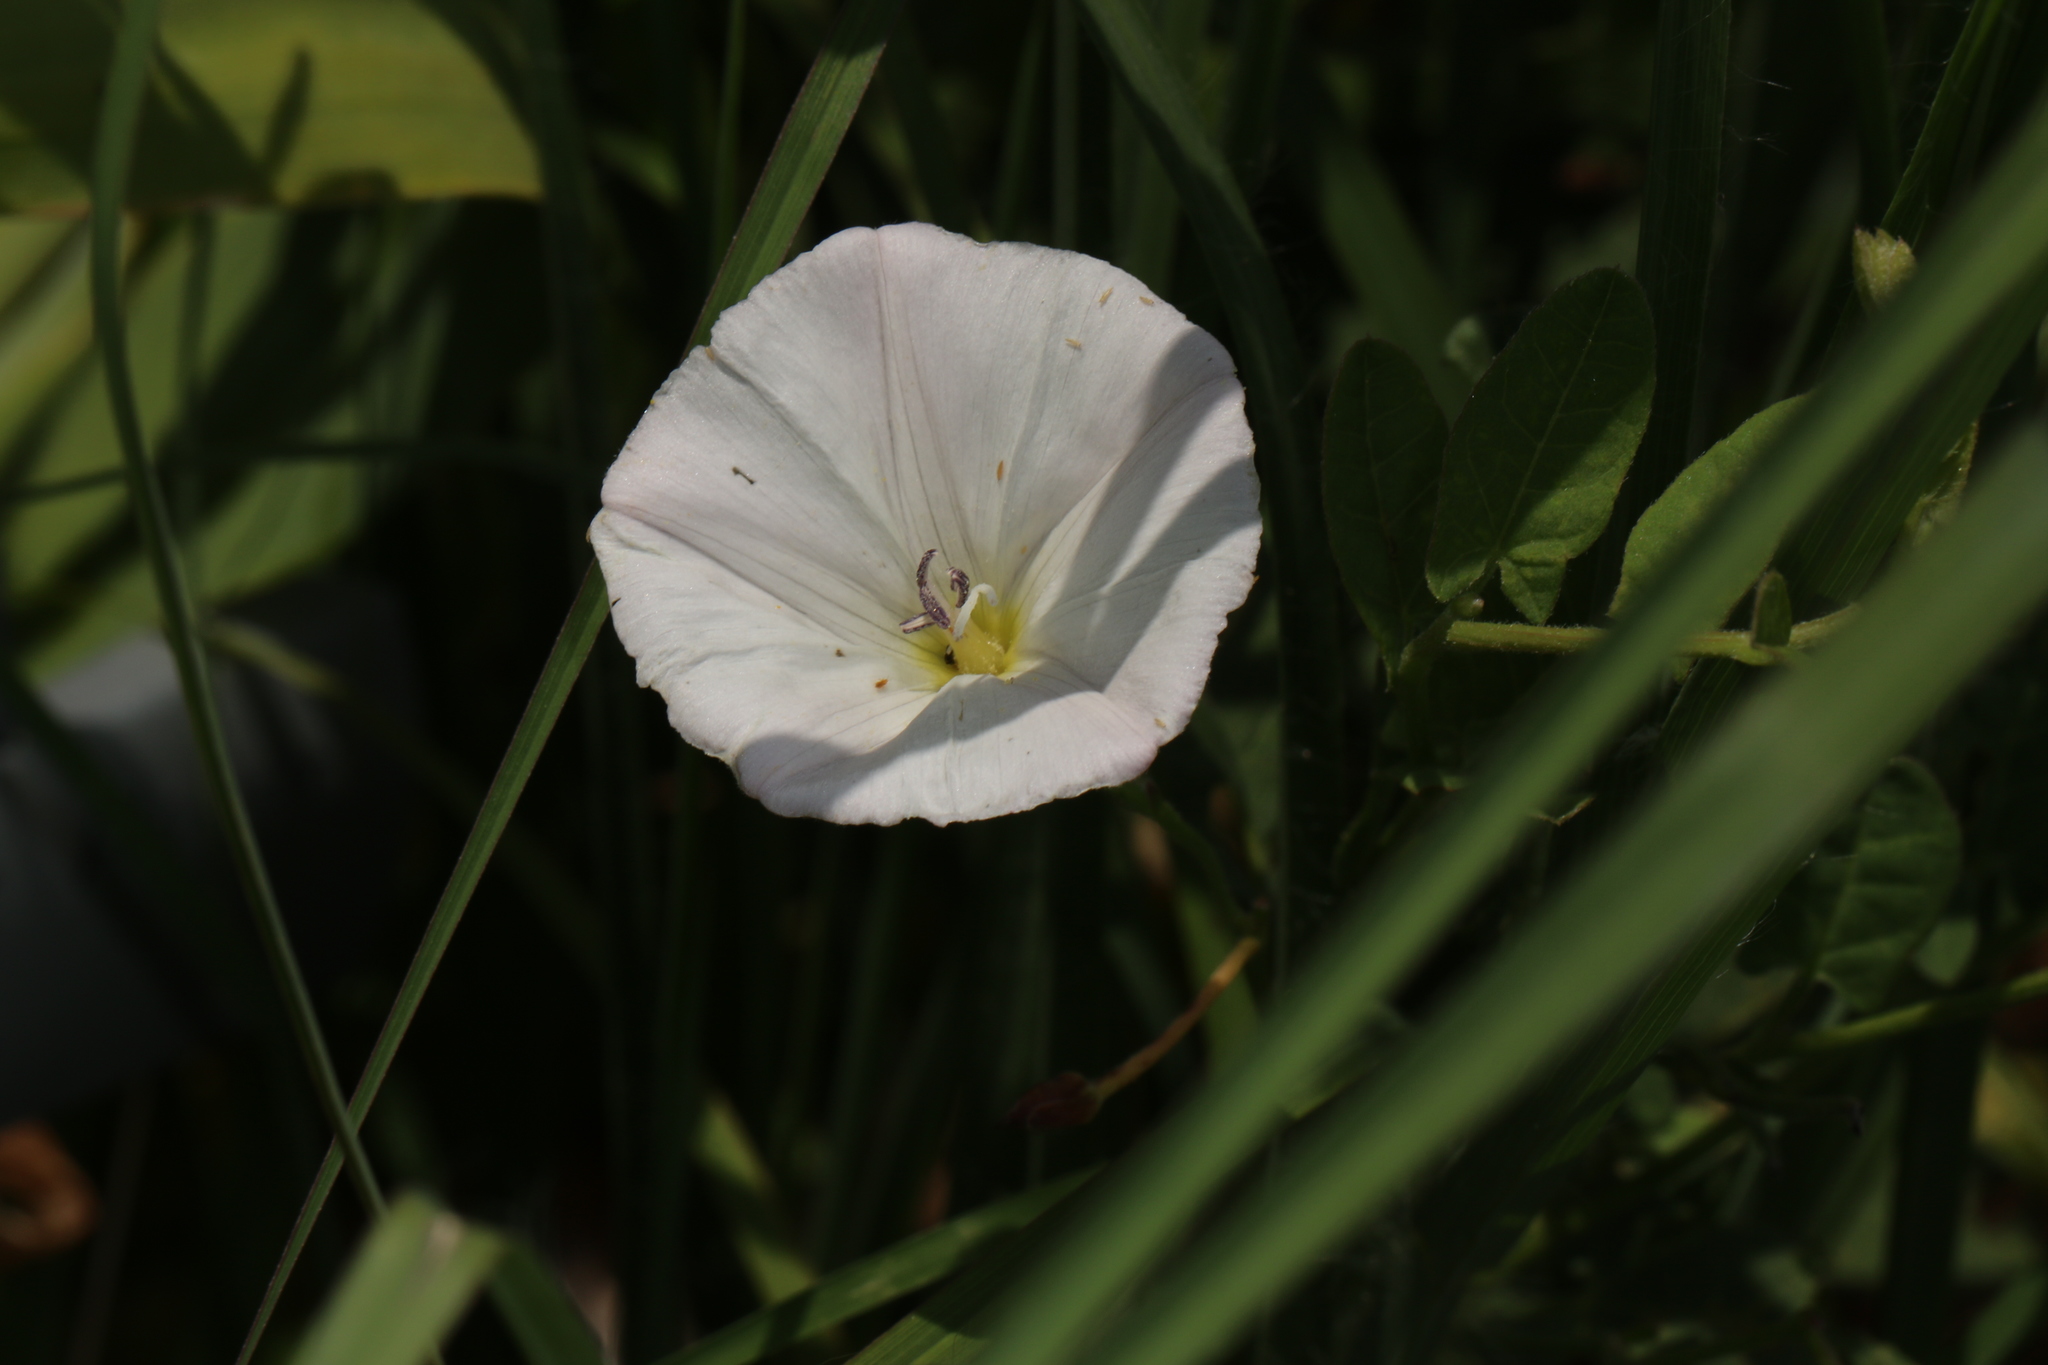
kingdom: Plantae
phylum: Tracheophyta
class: Magnoliopsida
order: Solanales
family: Convolvulaceae
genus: Convolvulus
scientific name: Convolvulus arvensis
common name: Field bindweed
